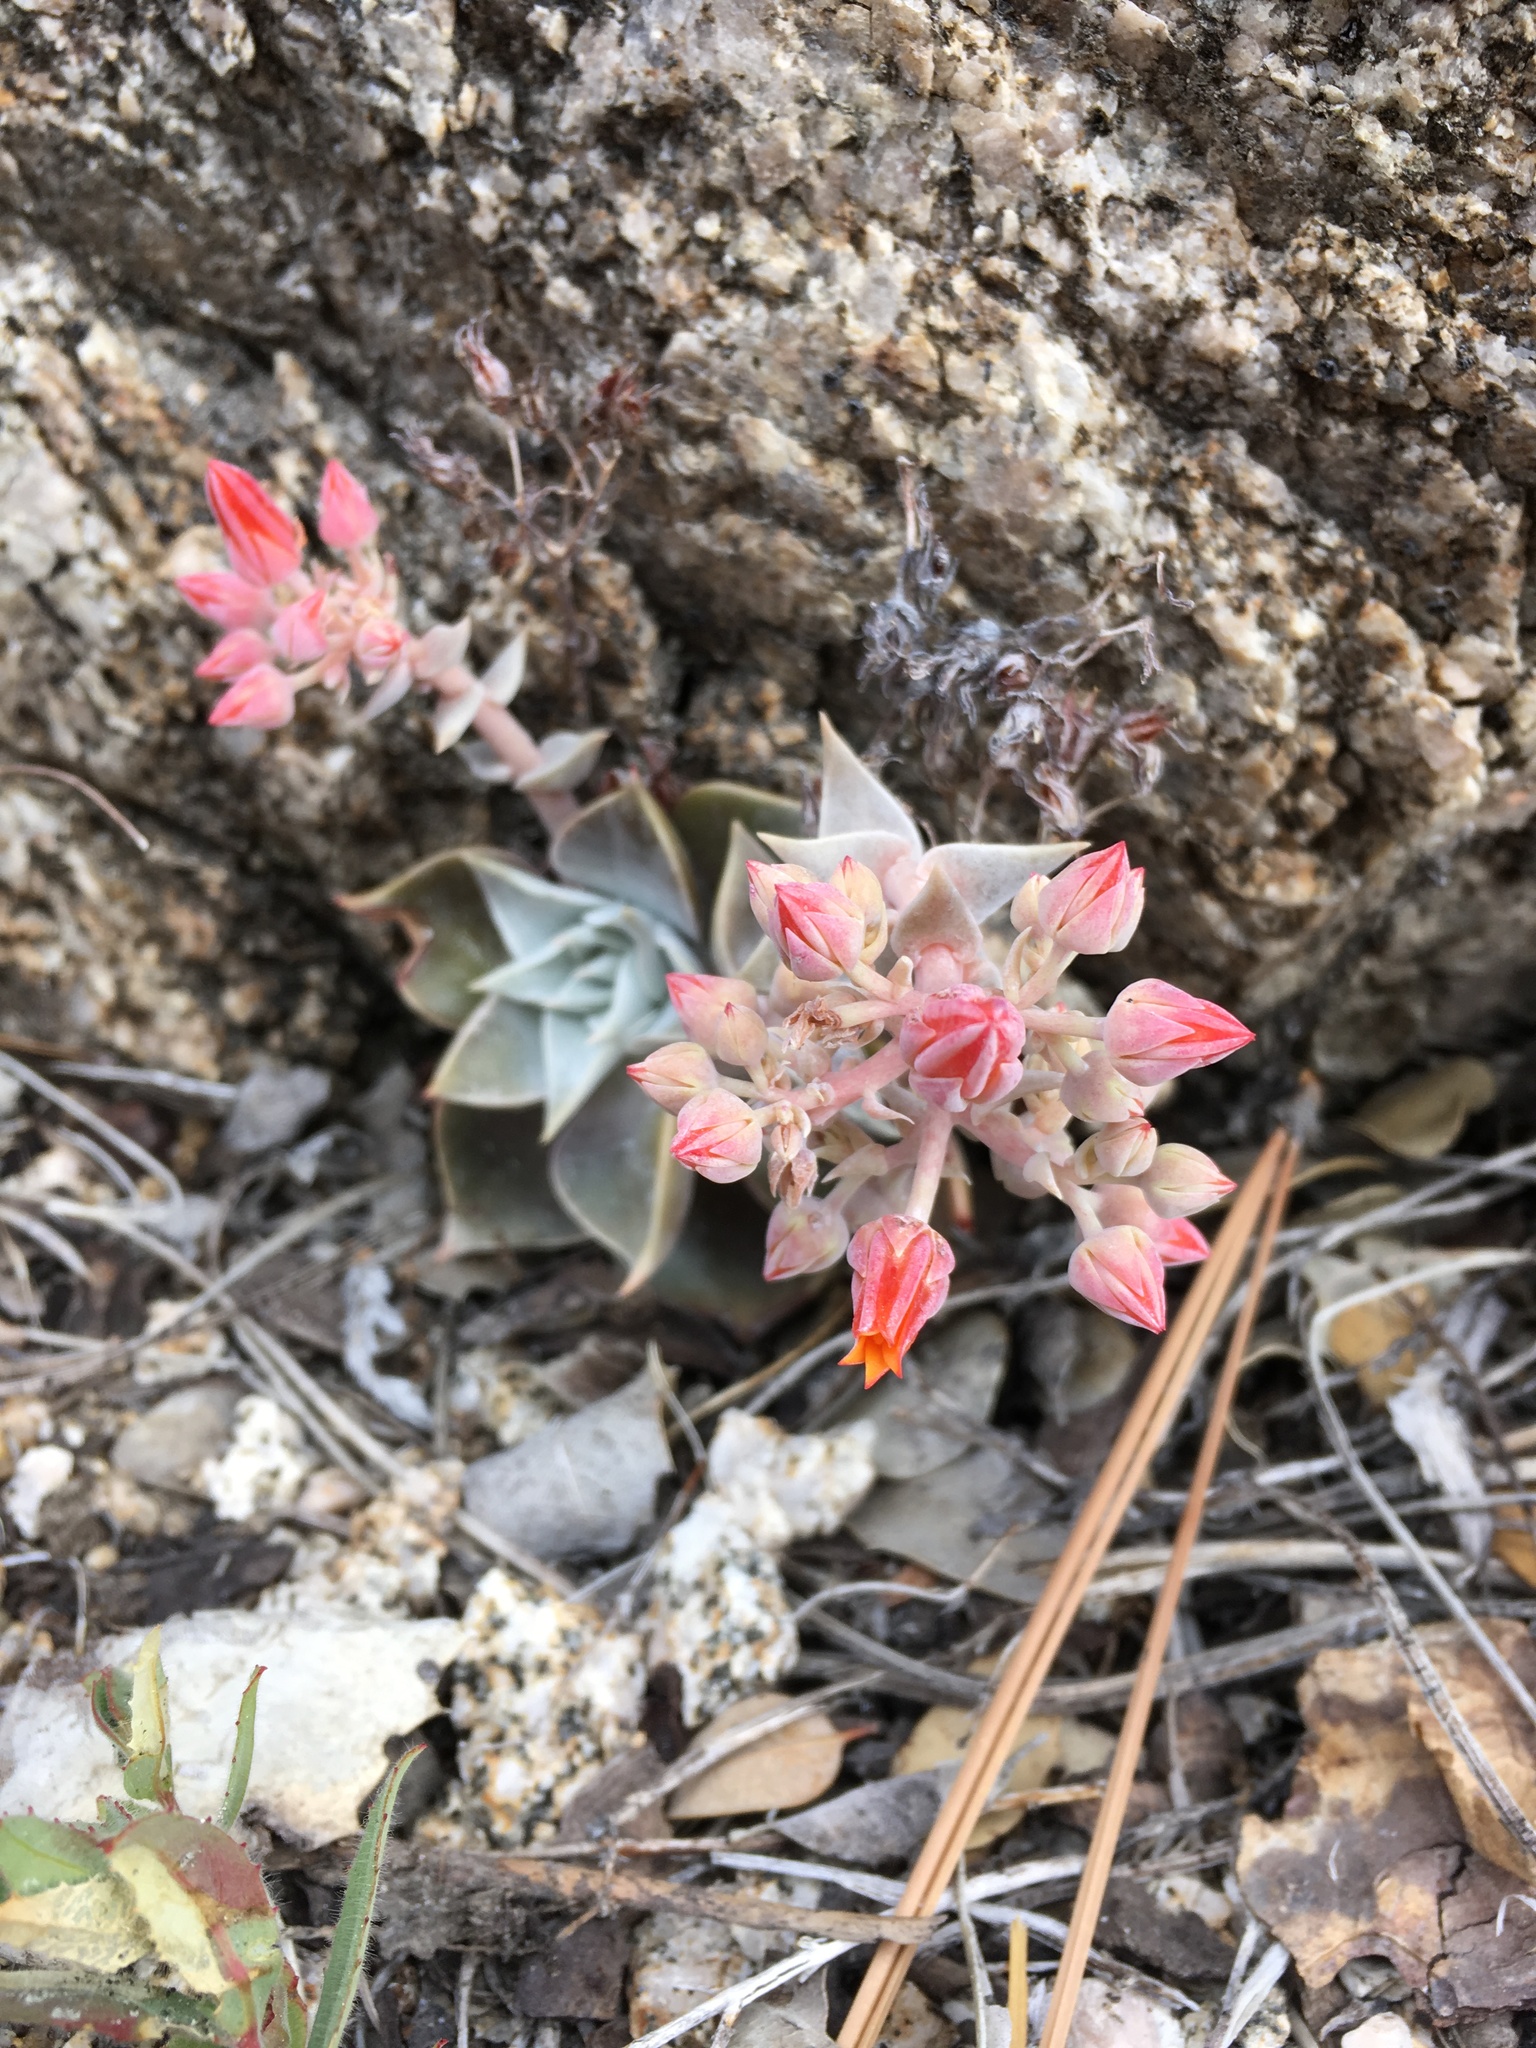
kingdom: Plantae
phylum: Tracheophyta
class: Magnoliopsida
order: Saxifragales
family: Crassulaceae
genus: Dudleya
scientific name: Dudleya cymosa
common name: Canyon dudleya
